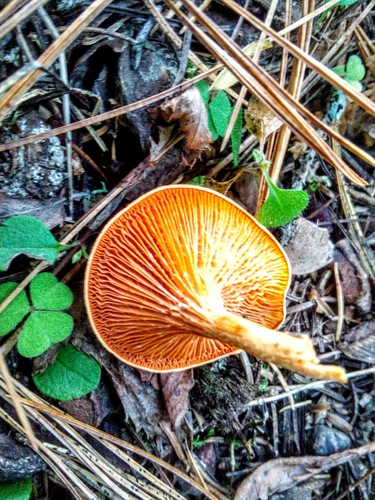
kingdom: Fungi
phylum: Basidiomycota
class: Agaricomycetes
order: Boletales
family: Hygrophoropsidaceae
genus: Hygrophoropsis
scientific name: Hygrophoropsis aurantiaca
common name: False chanterelle
